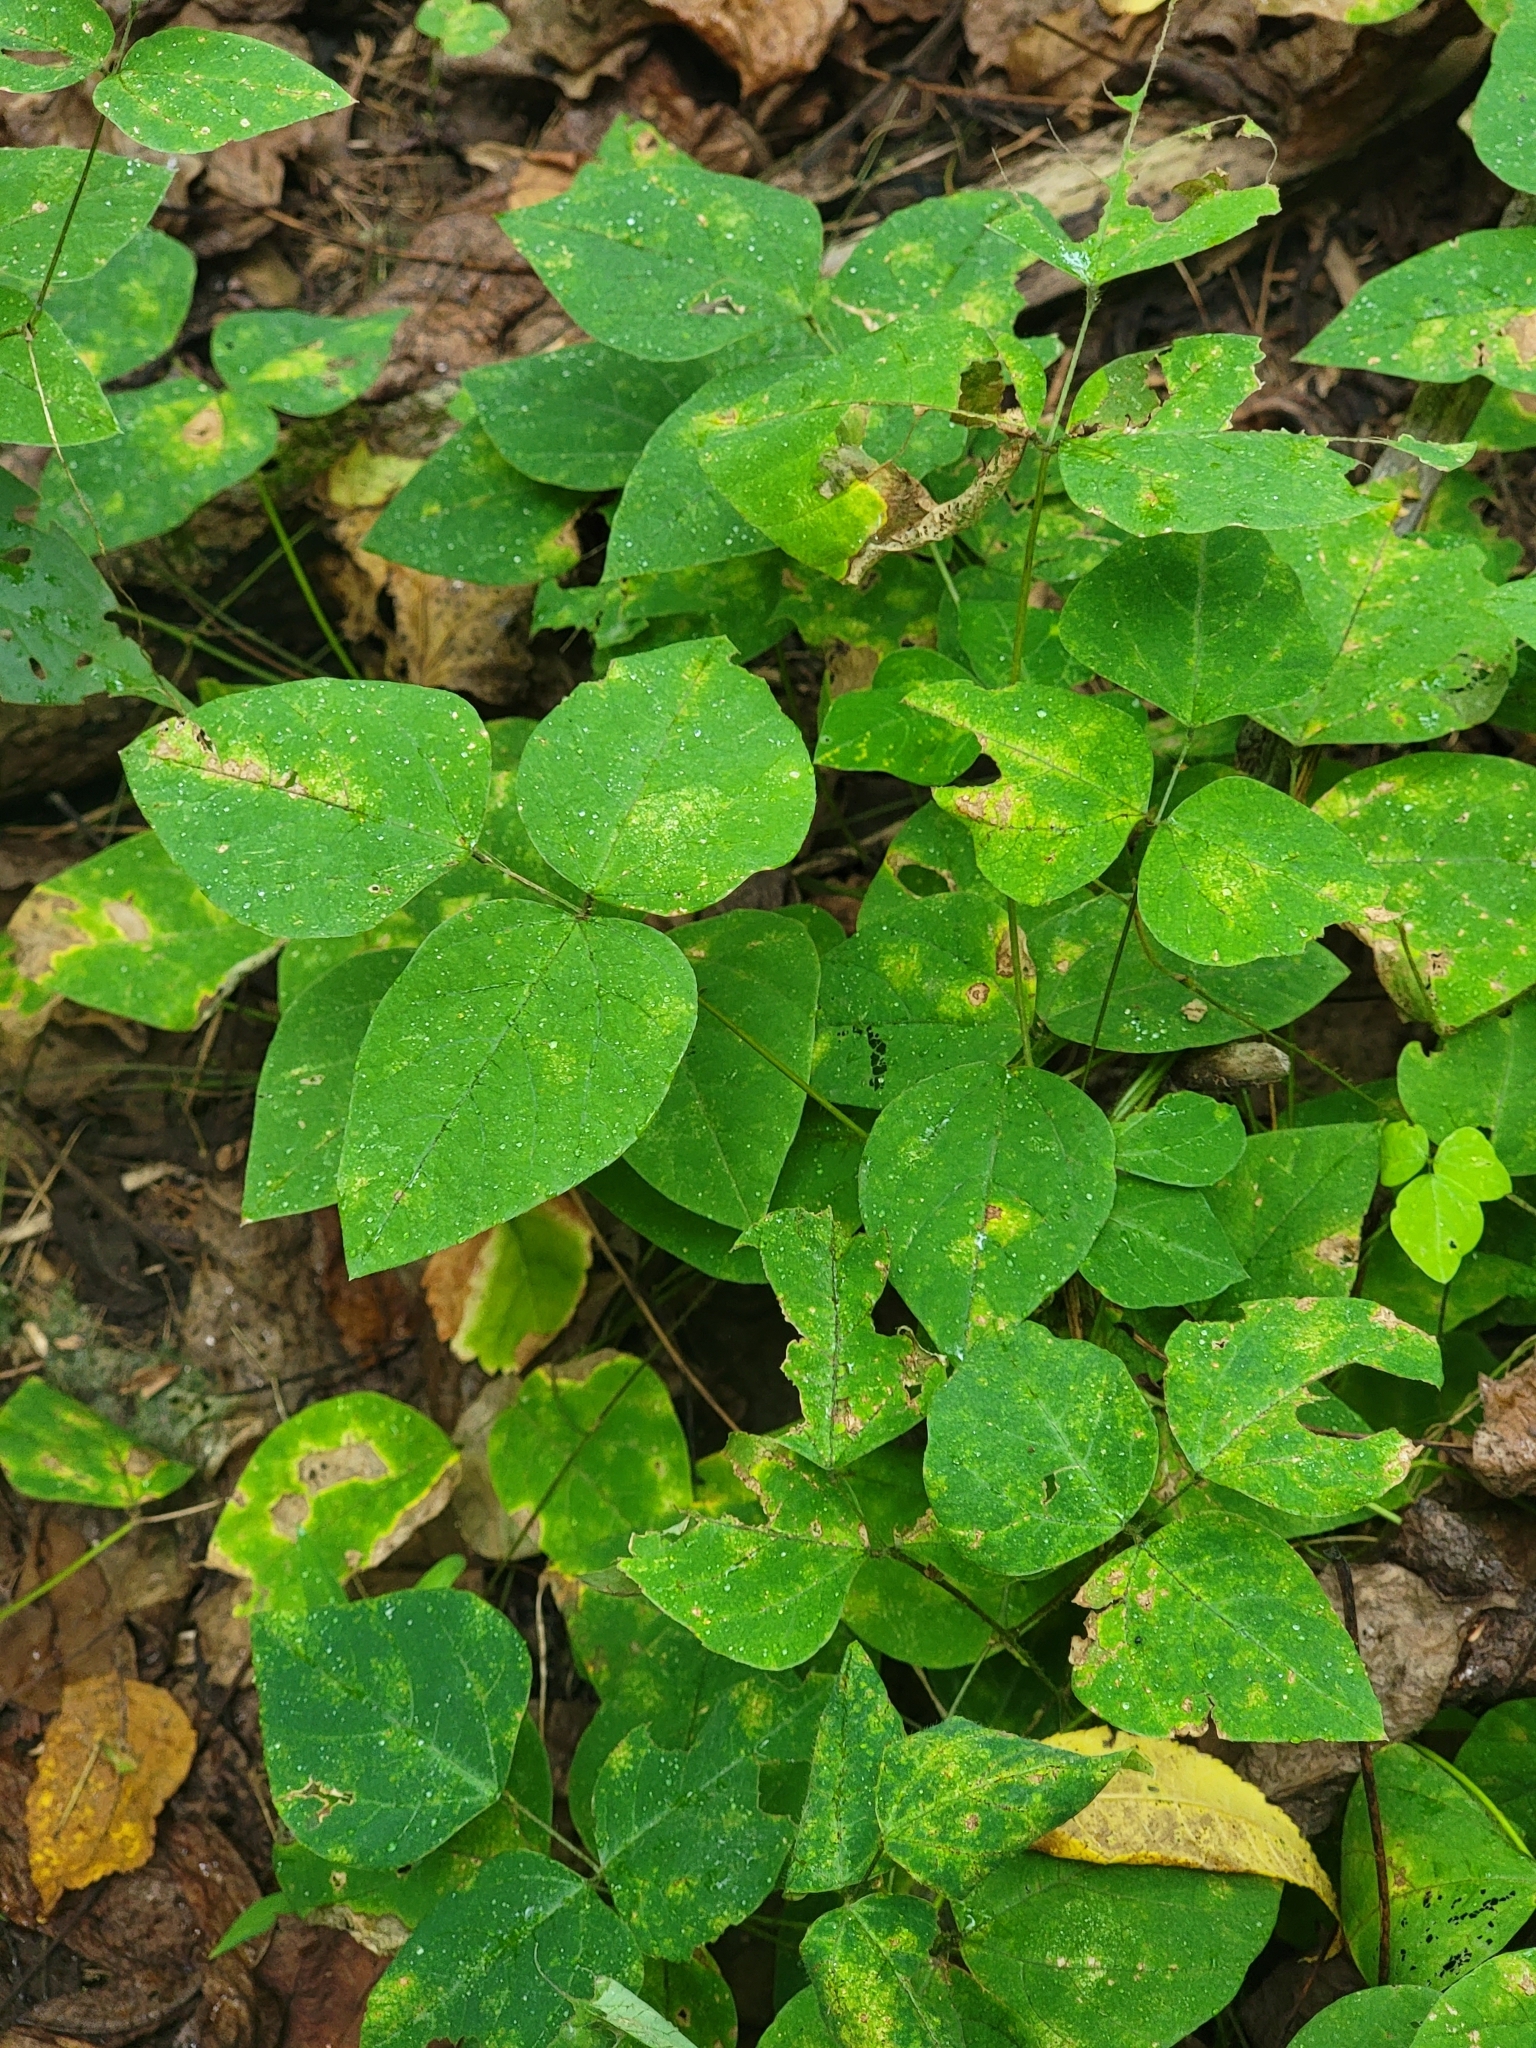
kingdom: Plantae
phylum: Tracheophyta
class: Magnoliopsida
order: Fabales
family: Fabaceae
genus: Amphicarpaea
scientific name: Amphicarpaea bracteata
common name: American hog peanut
